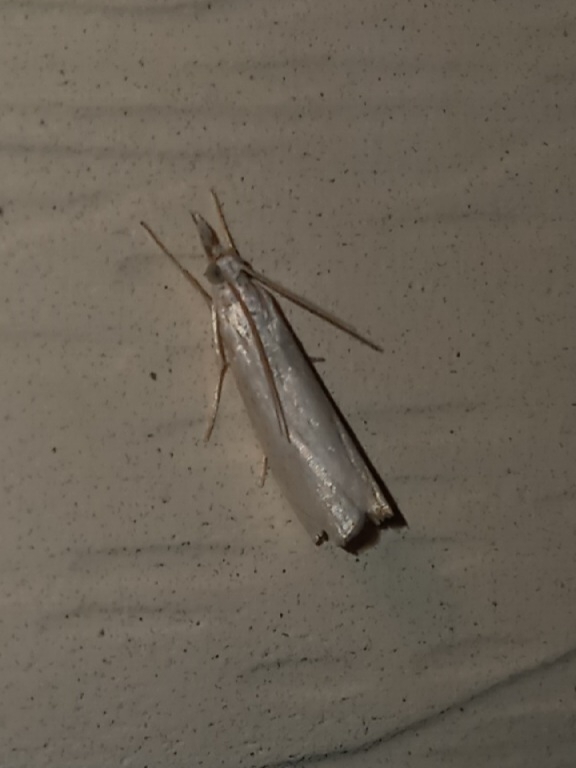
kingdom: Animalia
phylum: Arthropoda
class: Insecta
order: Lepidoptera
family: Crambidae
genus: Crambus
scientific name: Crambus albellus
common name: Small white grass-veneer
